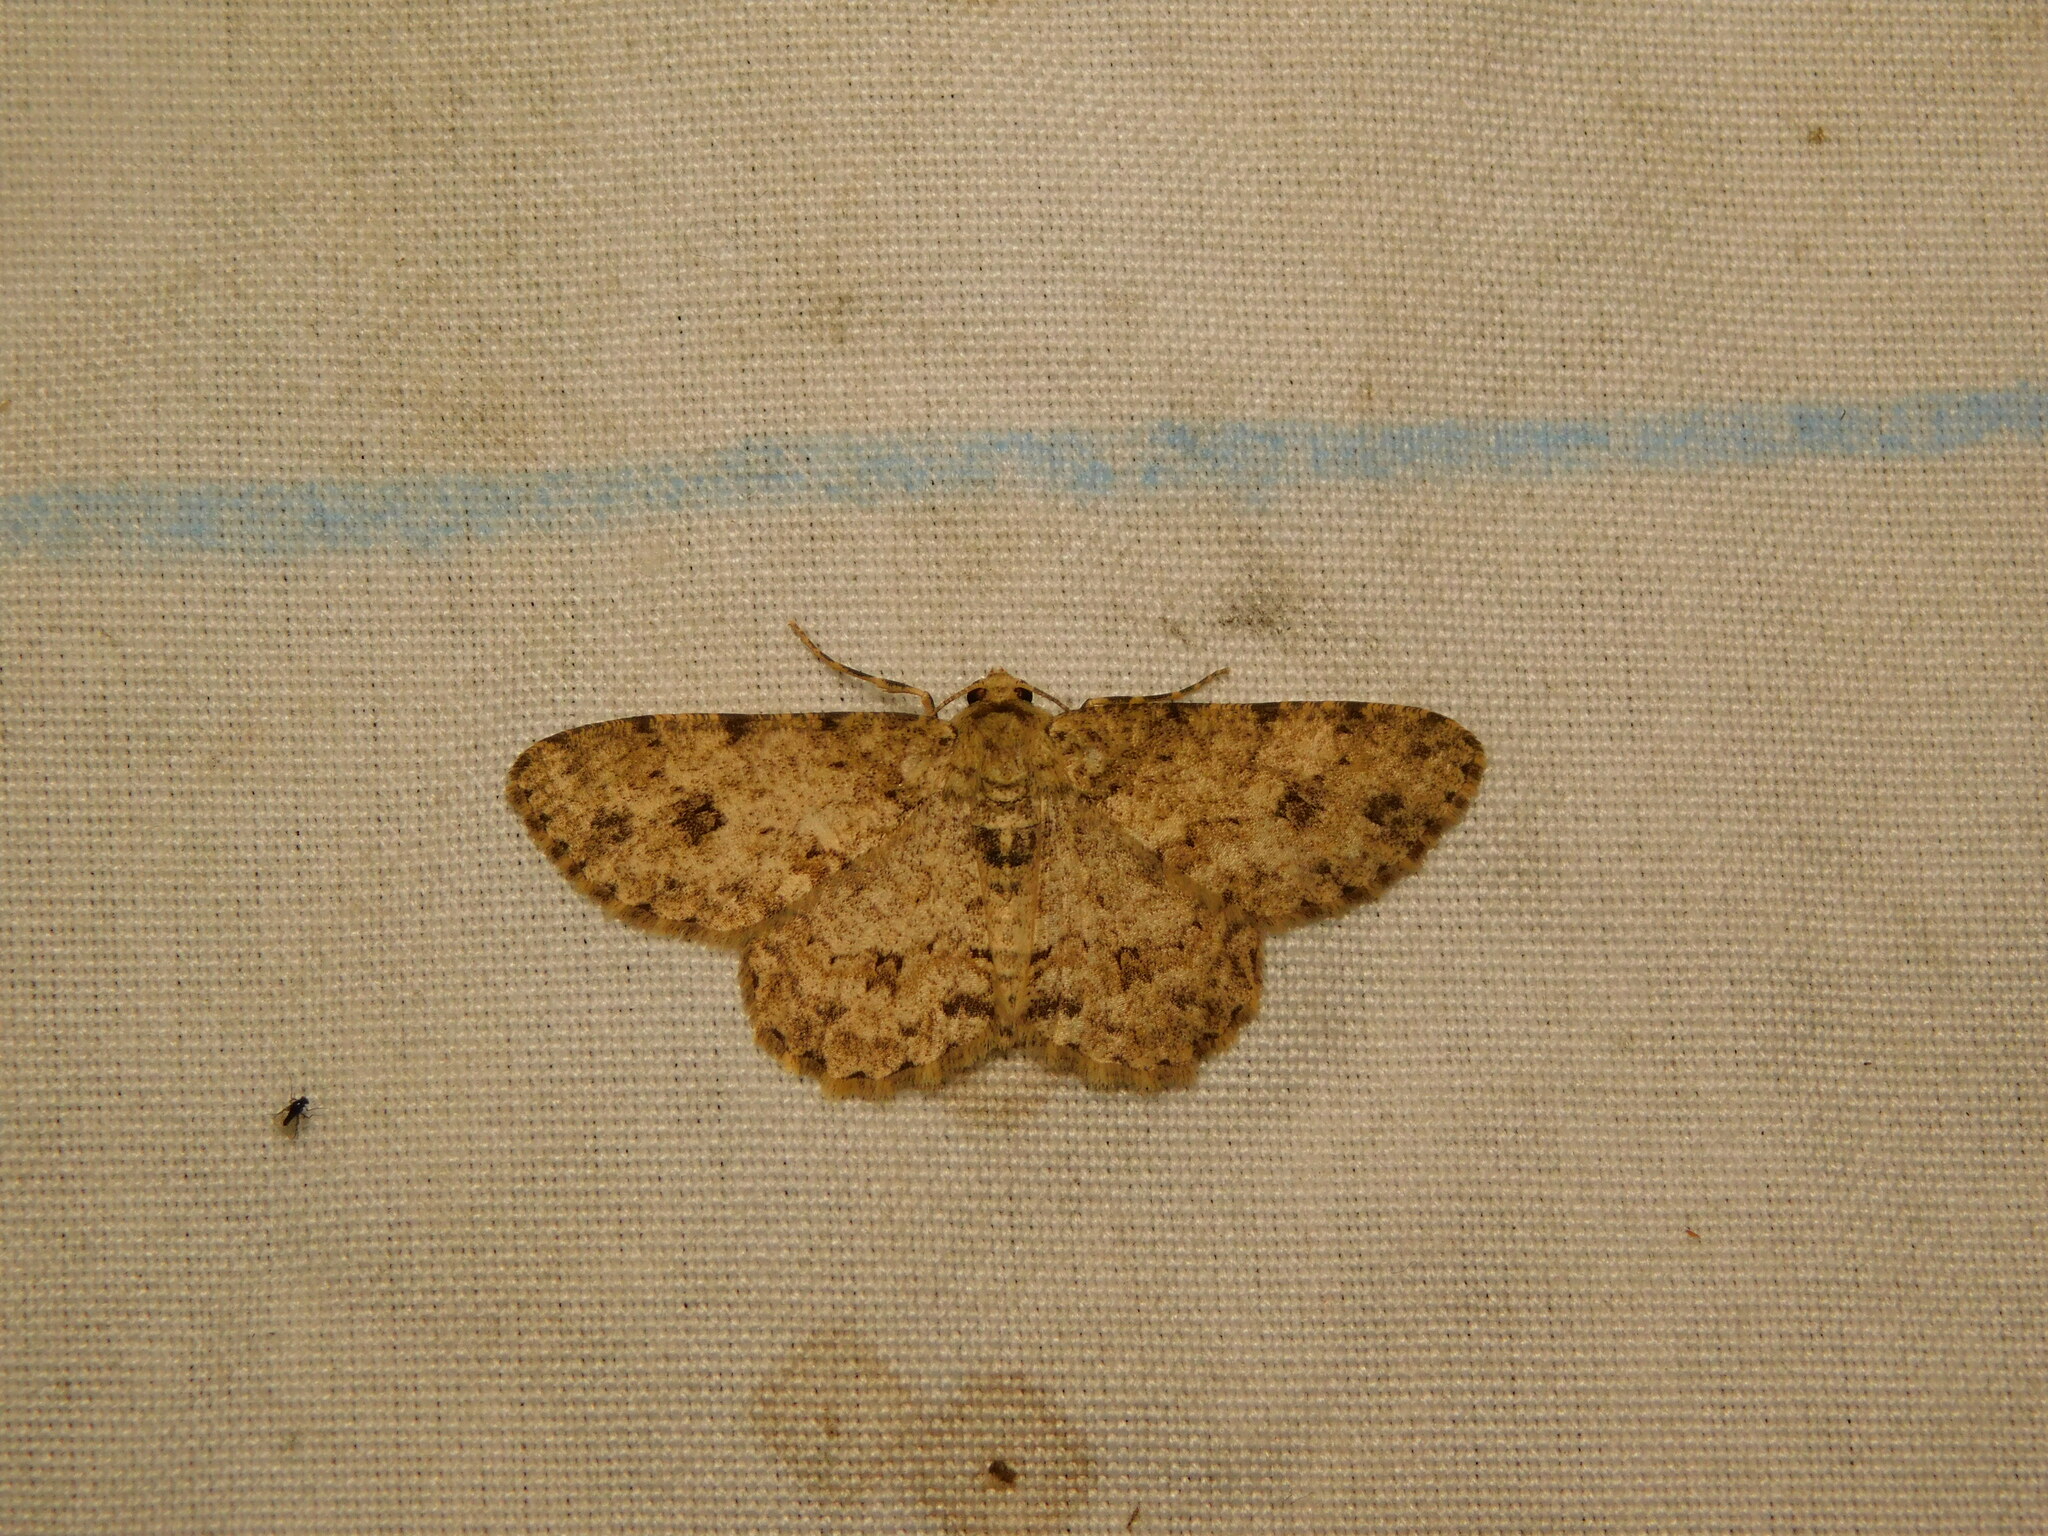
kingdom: Animalia
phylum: Arthropoda
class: Insecta
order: Lepidoptera
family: Geometridae
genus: Ectropis
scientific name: Ectropis bhurmitra
